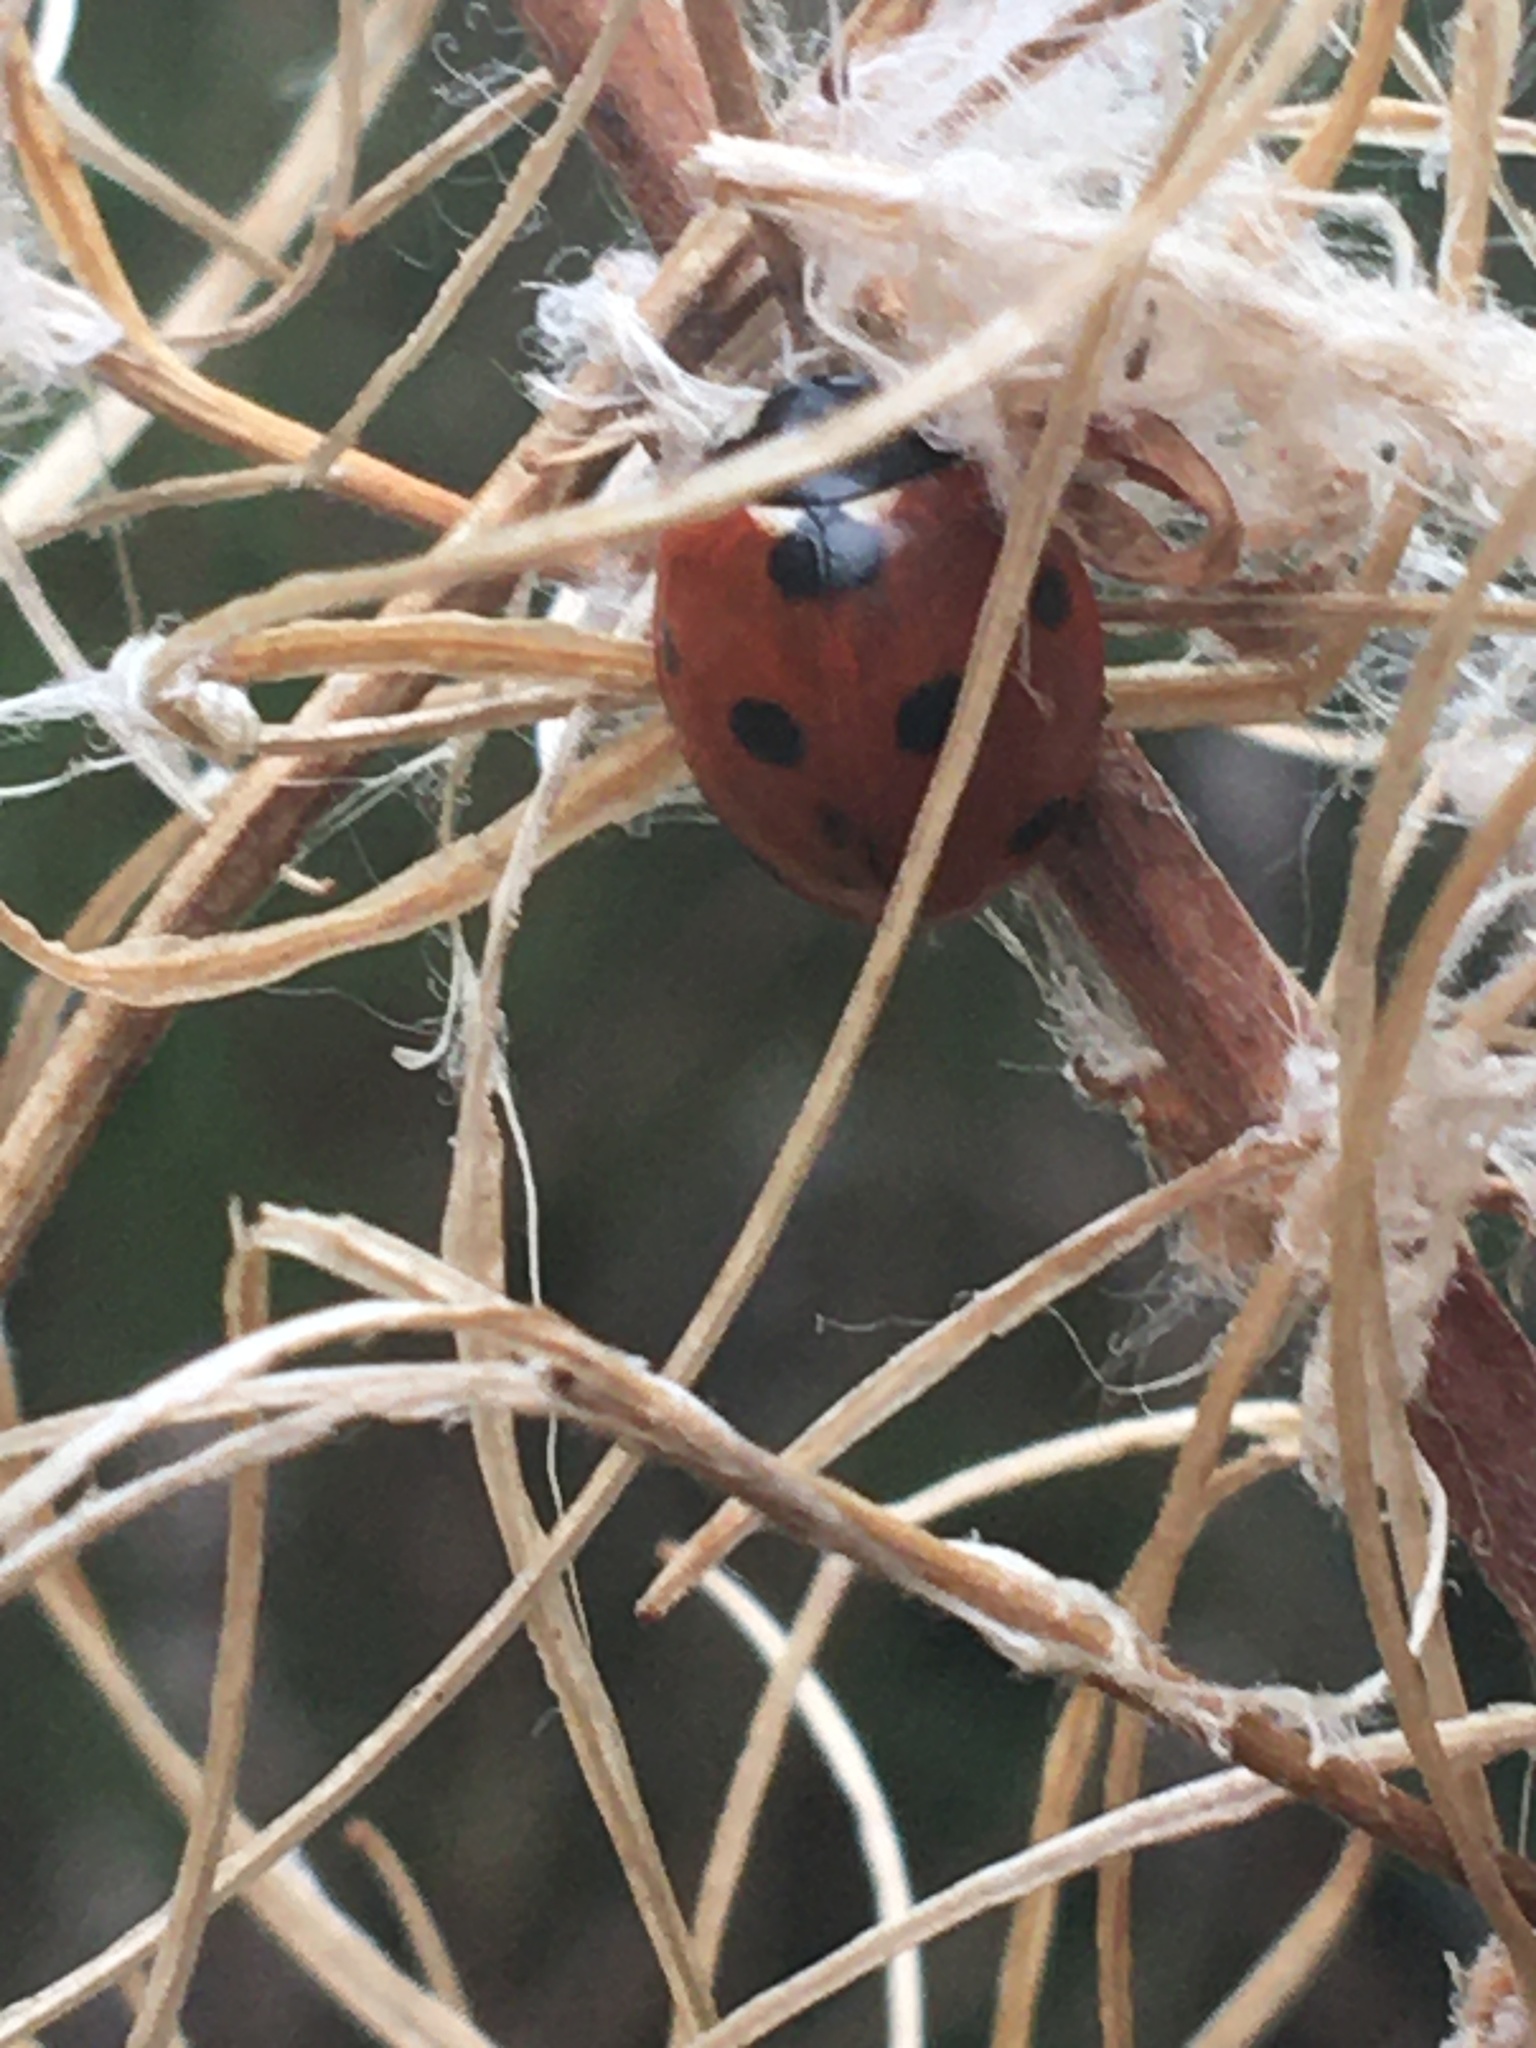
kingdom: Animalia
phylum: Arthropoda
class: Insecta
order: Coleoptera
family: Coccinellidae
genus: Coccinella
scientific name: Coccinella septempunctata
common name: Sevenspotted lady beetle
